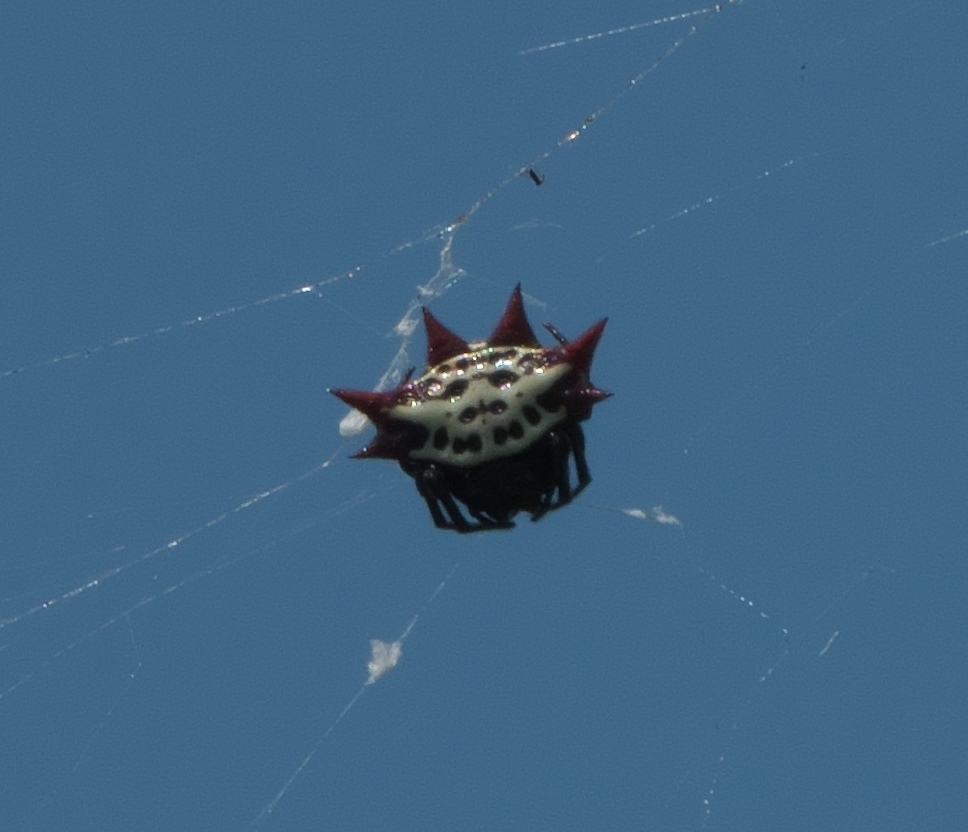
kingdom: Animalia
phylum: Arthropoda
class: Arachnida
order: Araneae
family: Araneidae
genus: Gasteracantha
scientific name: Gasteracantha cancriformis
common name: Orb weavers
